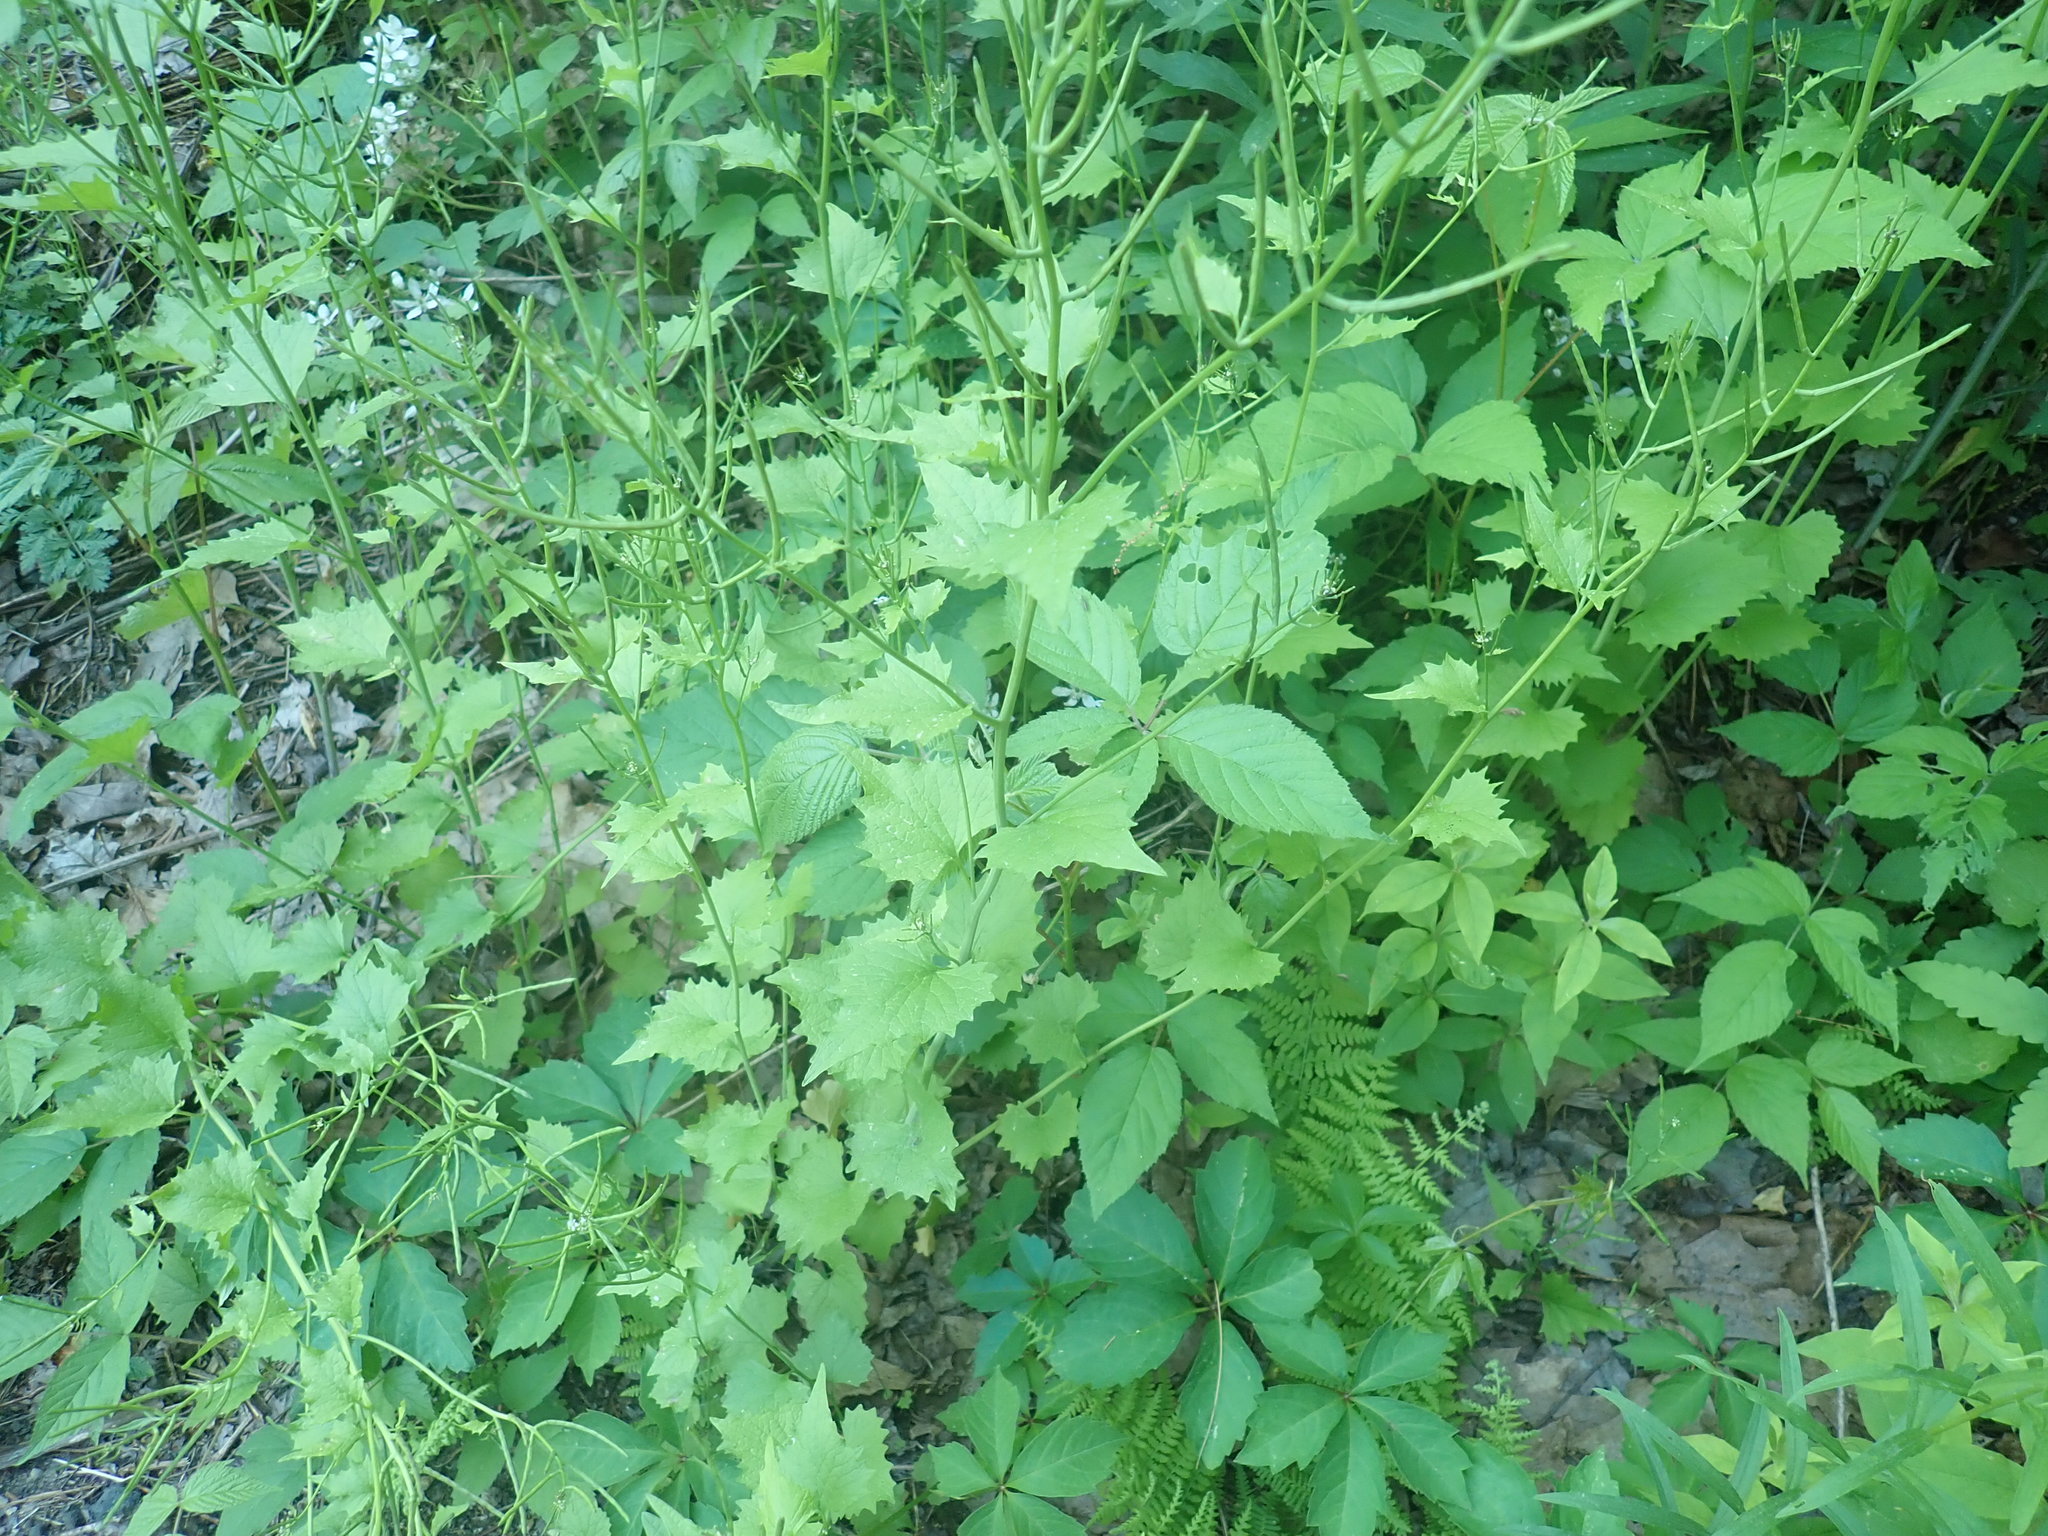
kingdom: Plantae
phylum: Tracheophyta
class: Magnoliopsida
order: Brassicales
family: Brassicaceae
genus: Alliaria
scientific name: Alliaria petiolata
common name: Garlic mustard
